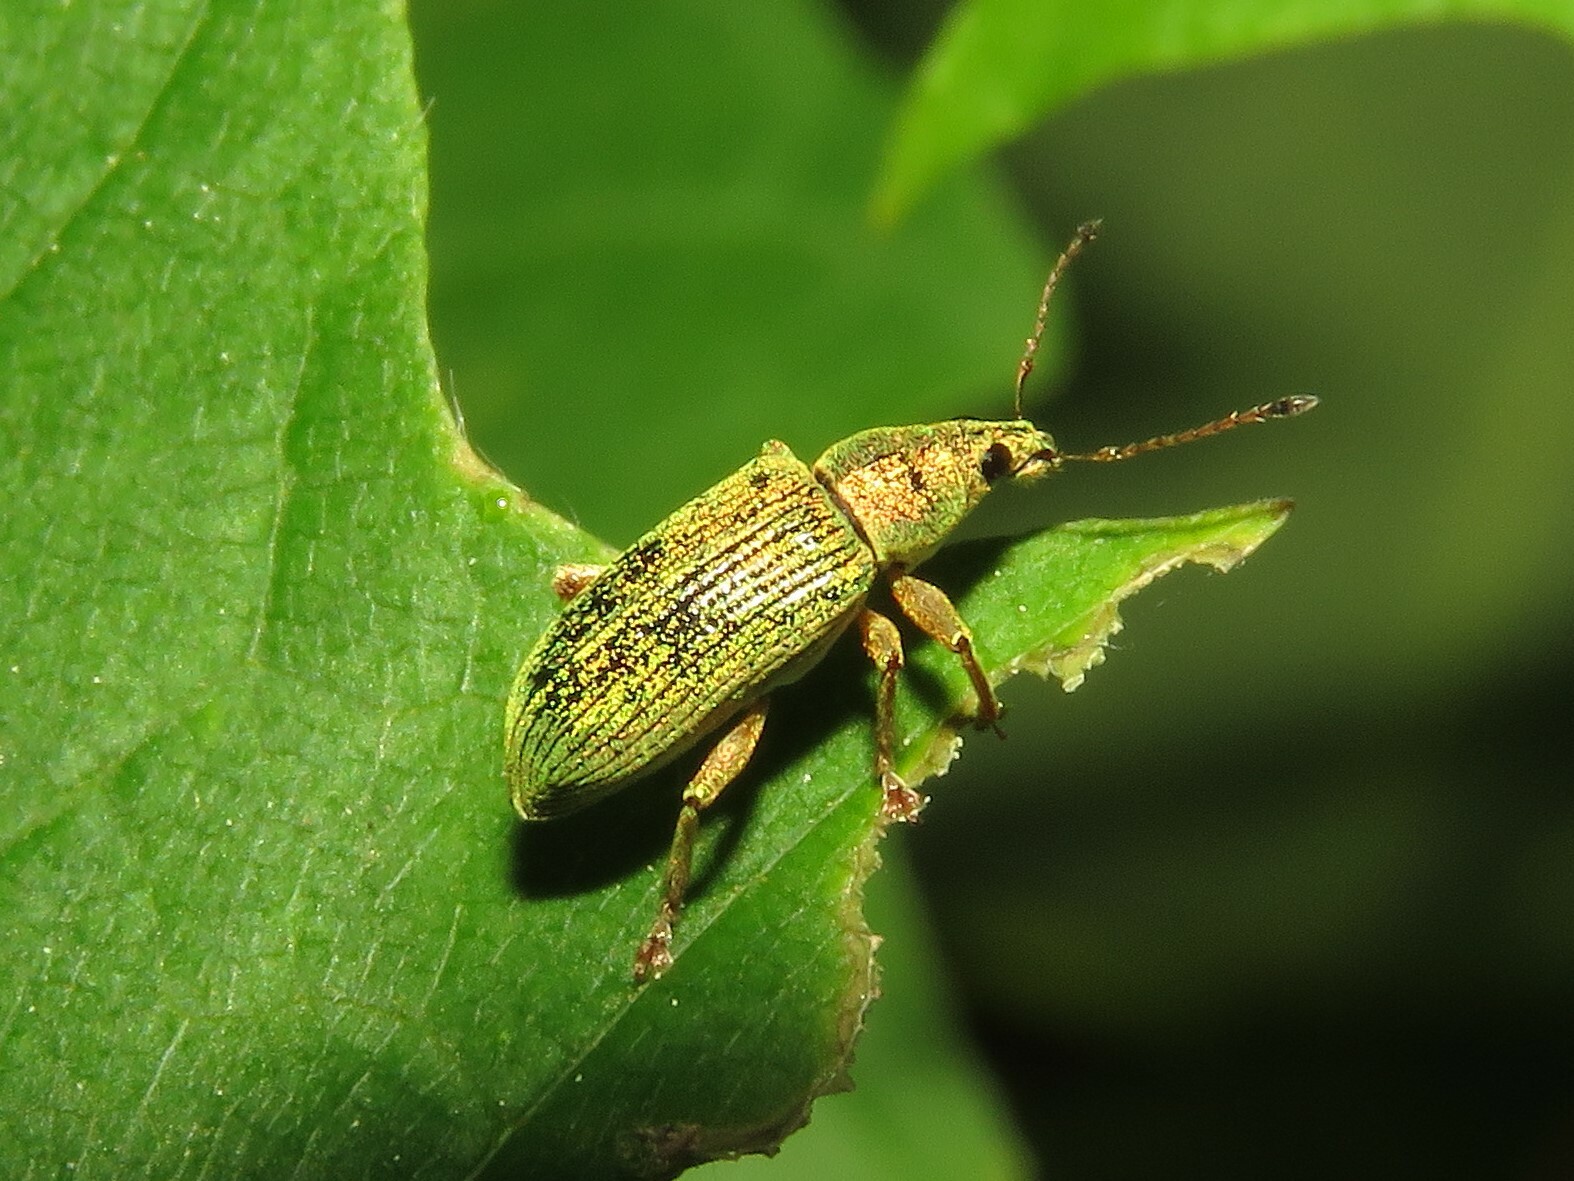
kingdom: Animalia
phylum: Arthropoda
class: Insecta
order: Coleoptera
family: Curculionidae
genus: Polydrusus
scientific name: Polydrusus formosus
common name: Weevil
